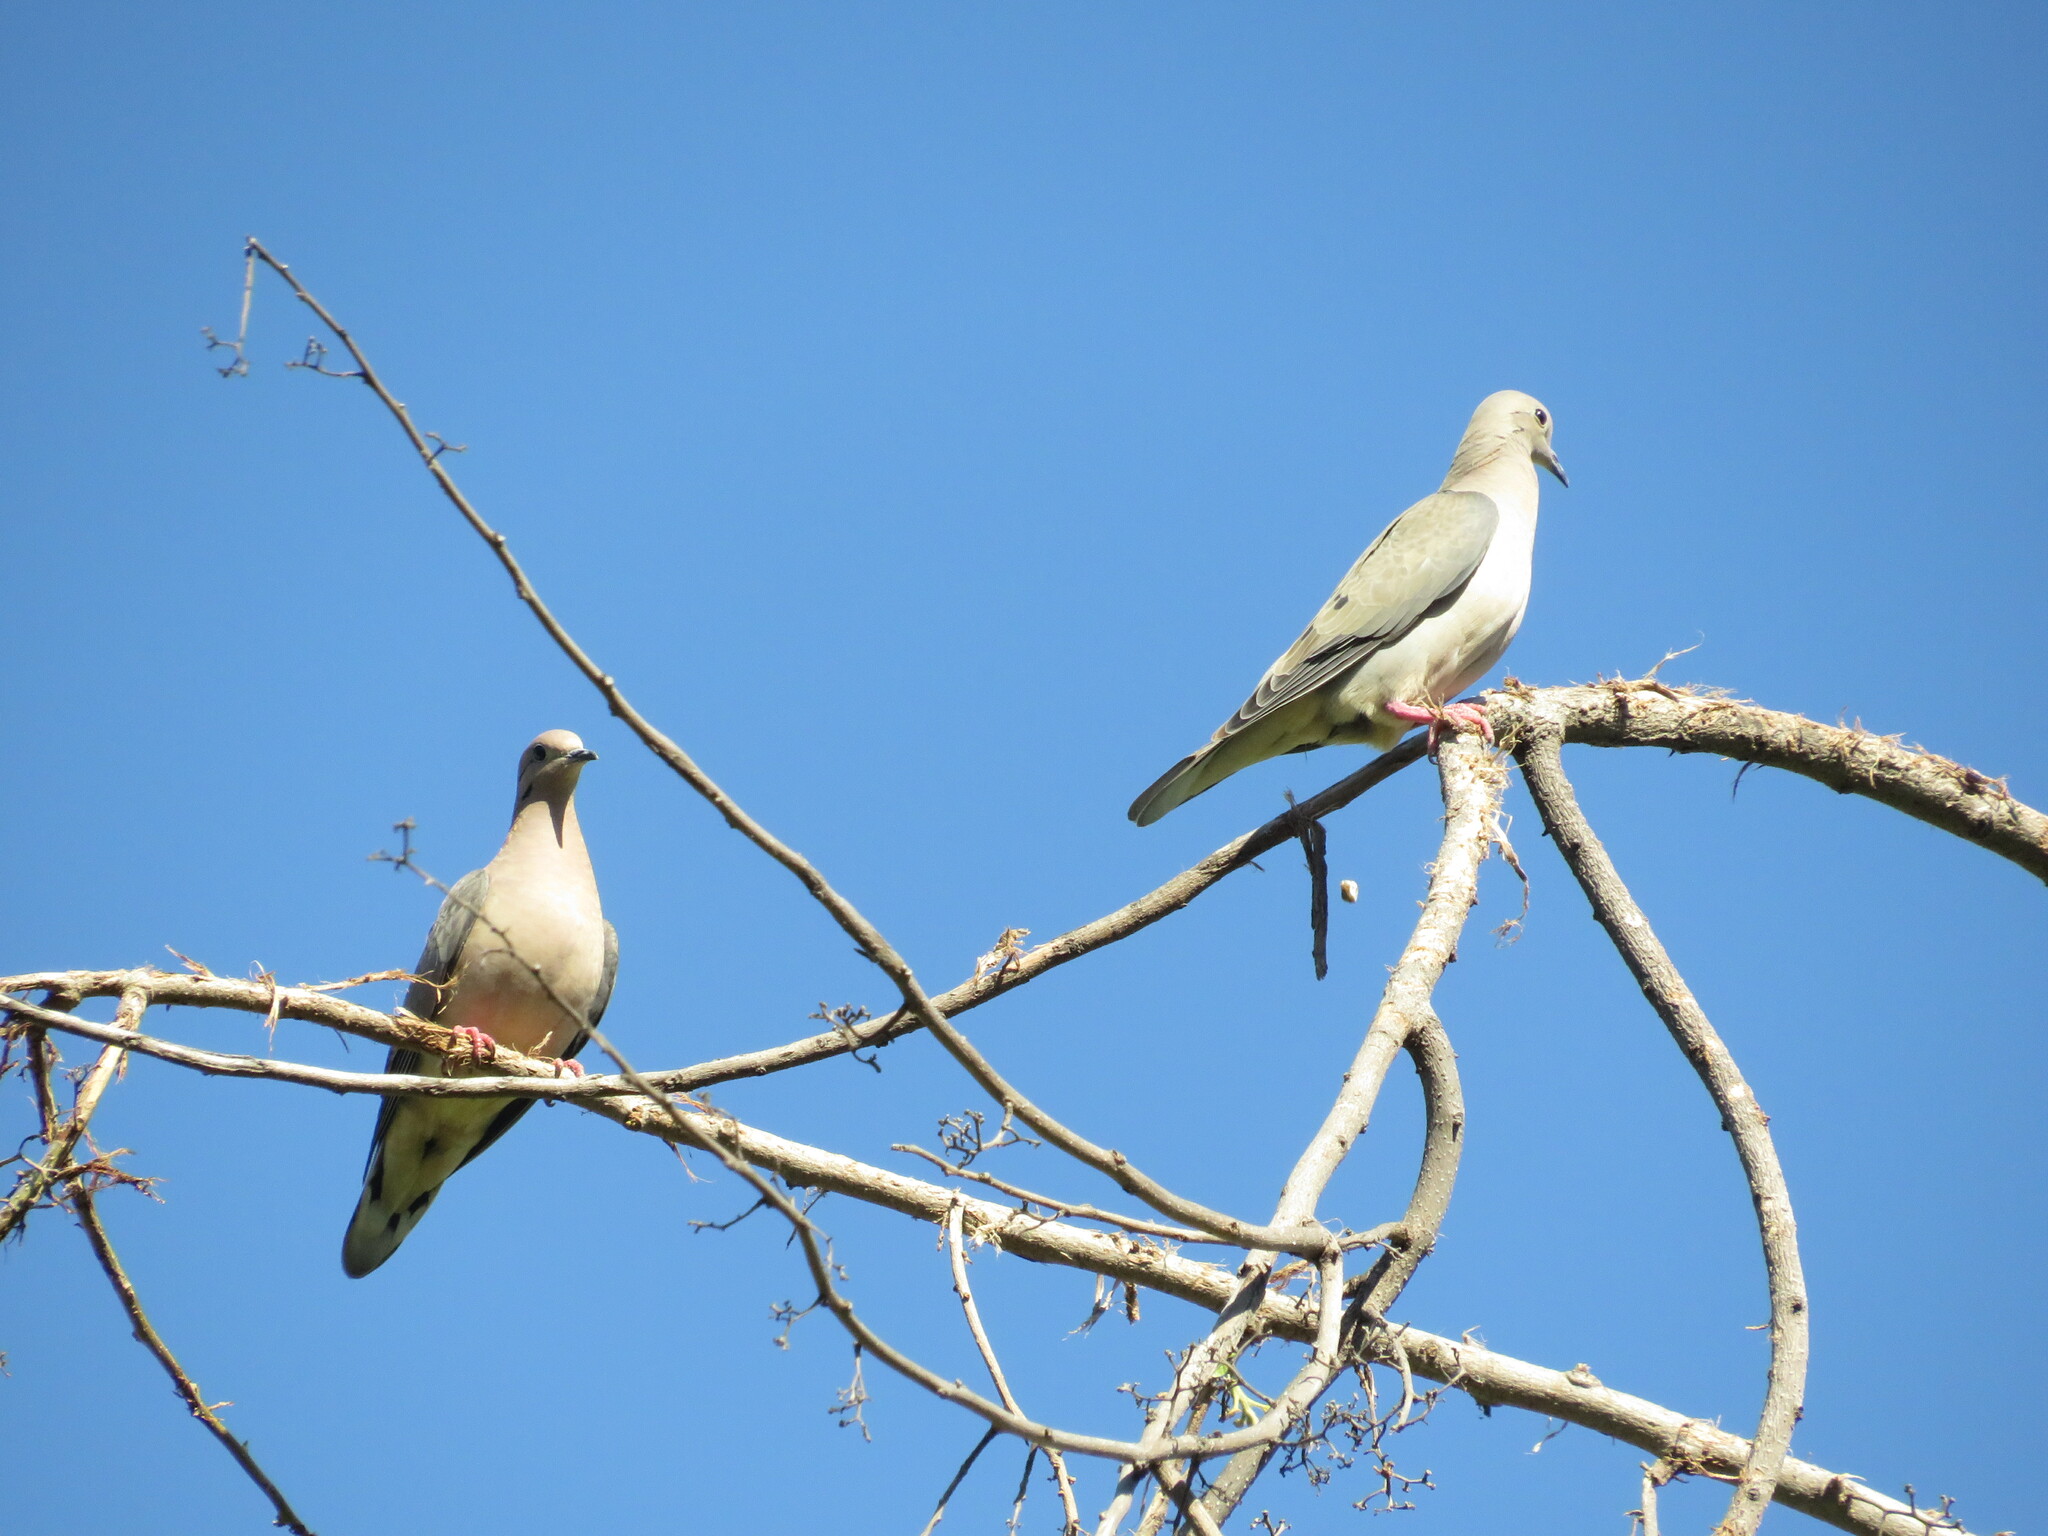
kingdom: Animalia
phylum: Chordata
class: Aves
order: Columbiformes
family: Columbidae
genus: Zenaida
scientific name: Zenaida auriculata
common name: Eared dove
